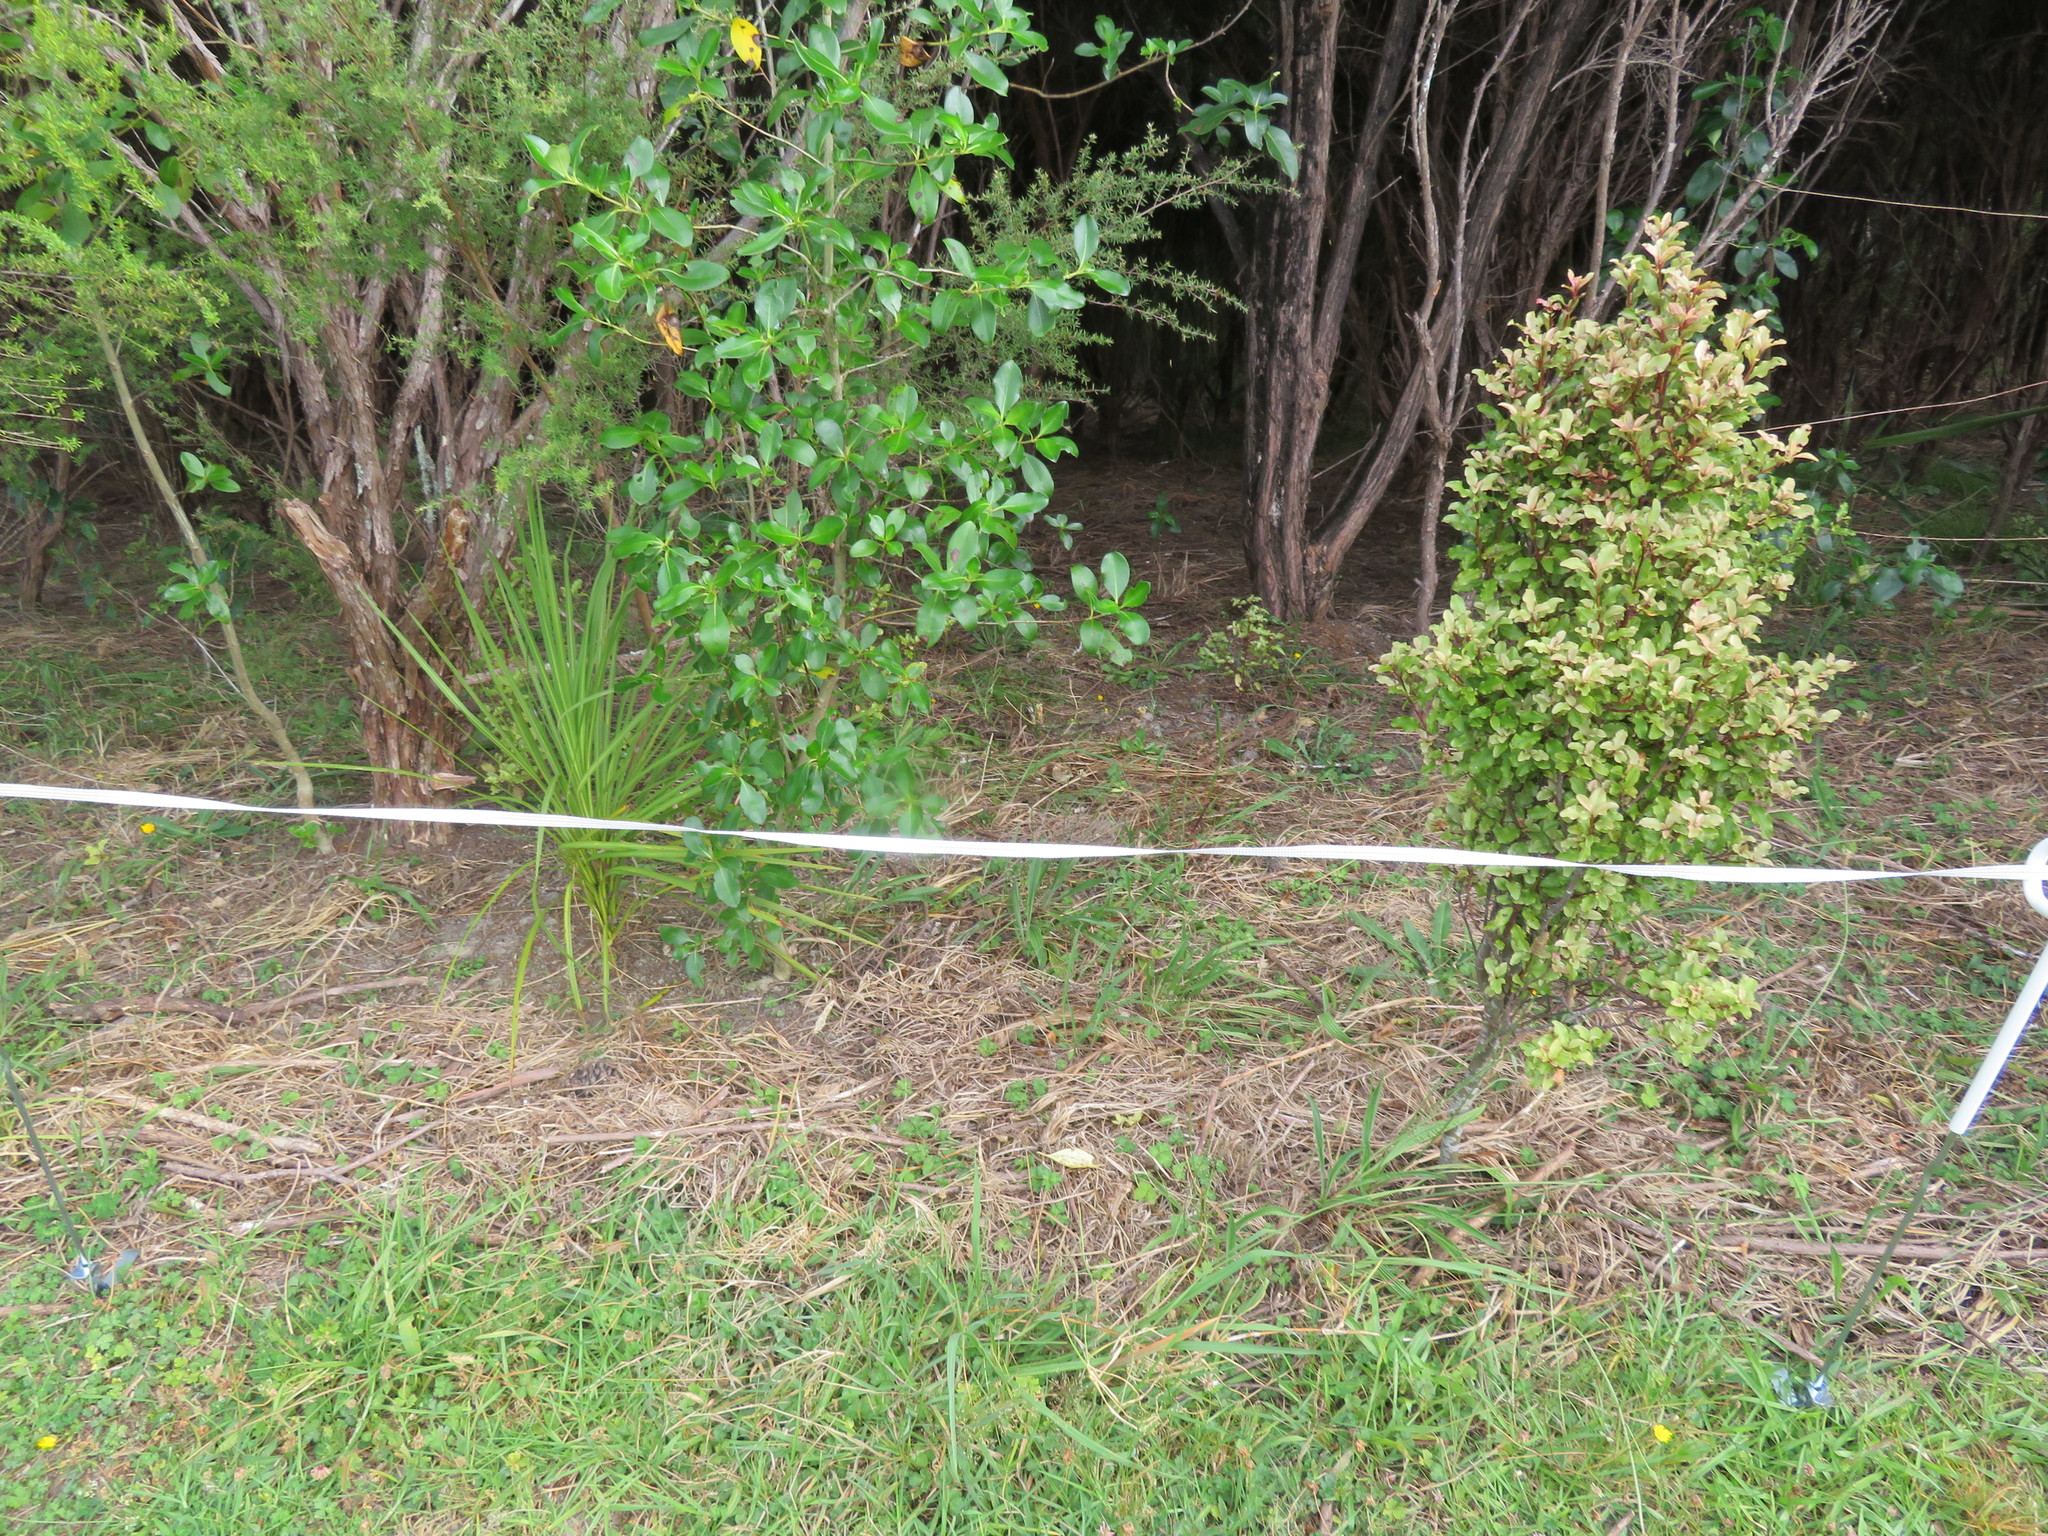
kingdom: Plantae
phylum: Tracheophyta
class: Magnoliopsida
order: Ericales
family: Primulaceae
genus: Myrsine
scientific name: Myrsine australis
